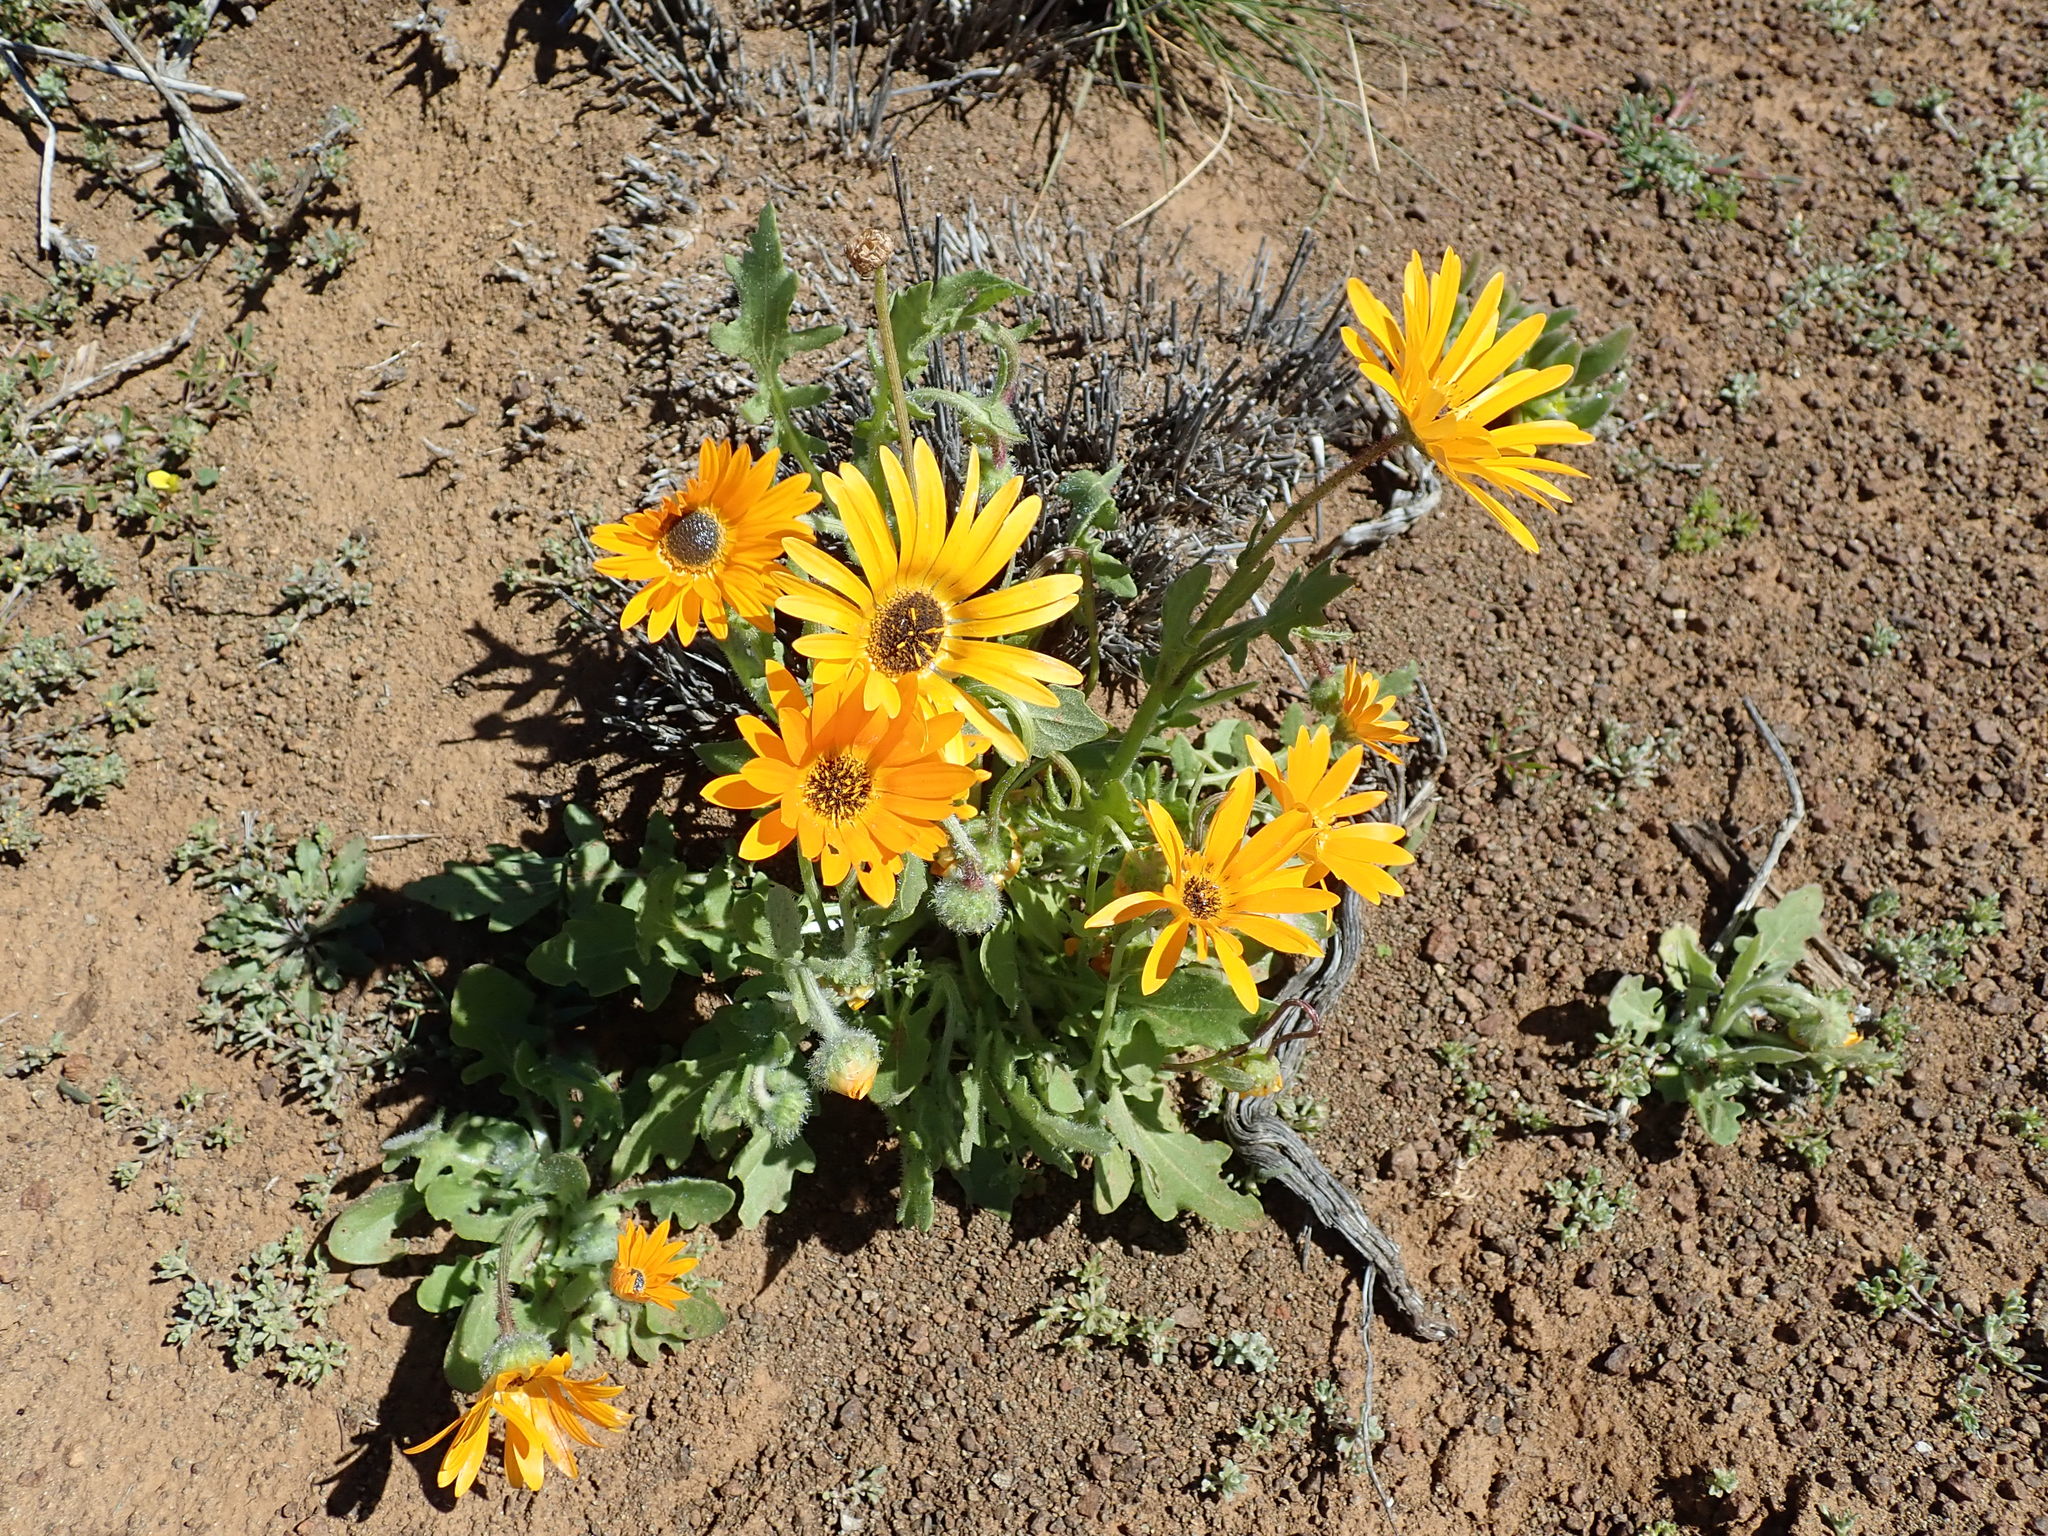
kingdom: Plantae
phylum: Tracheophyta
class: Magnoliopsida
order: Asterales
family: Asteraceae
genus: Arctotis
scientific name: Arctotis hirsuta
